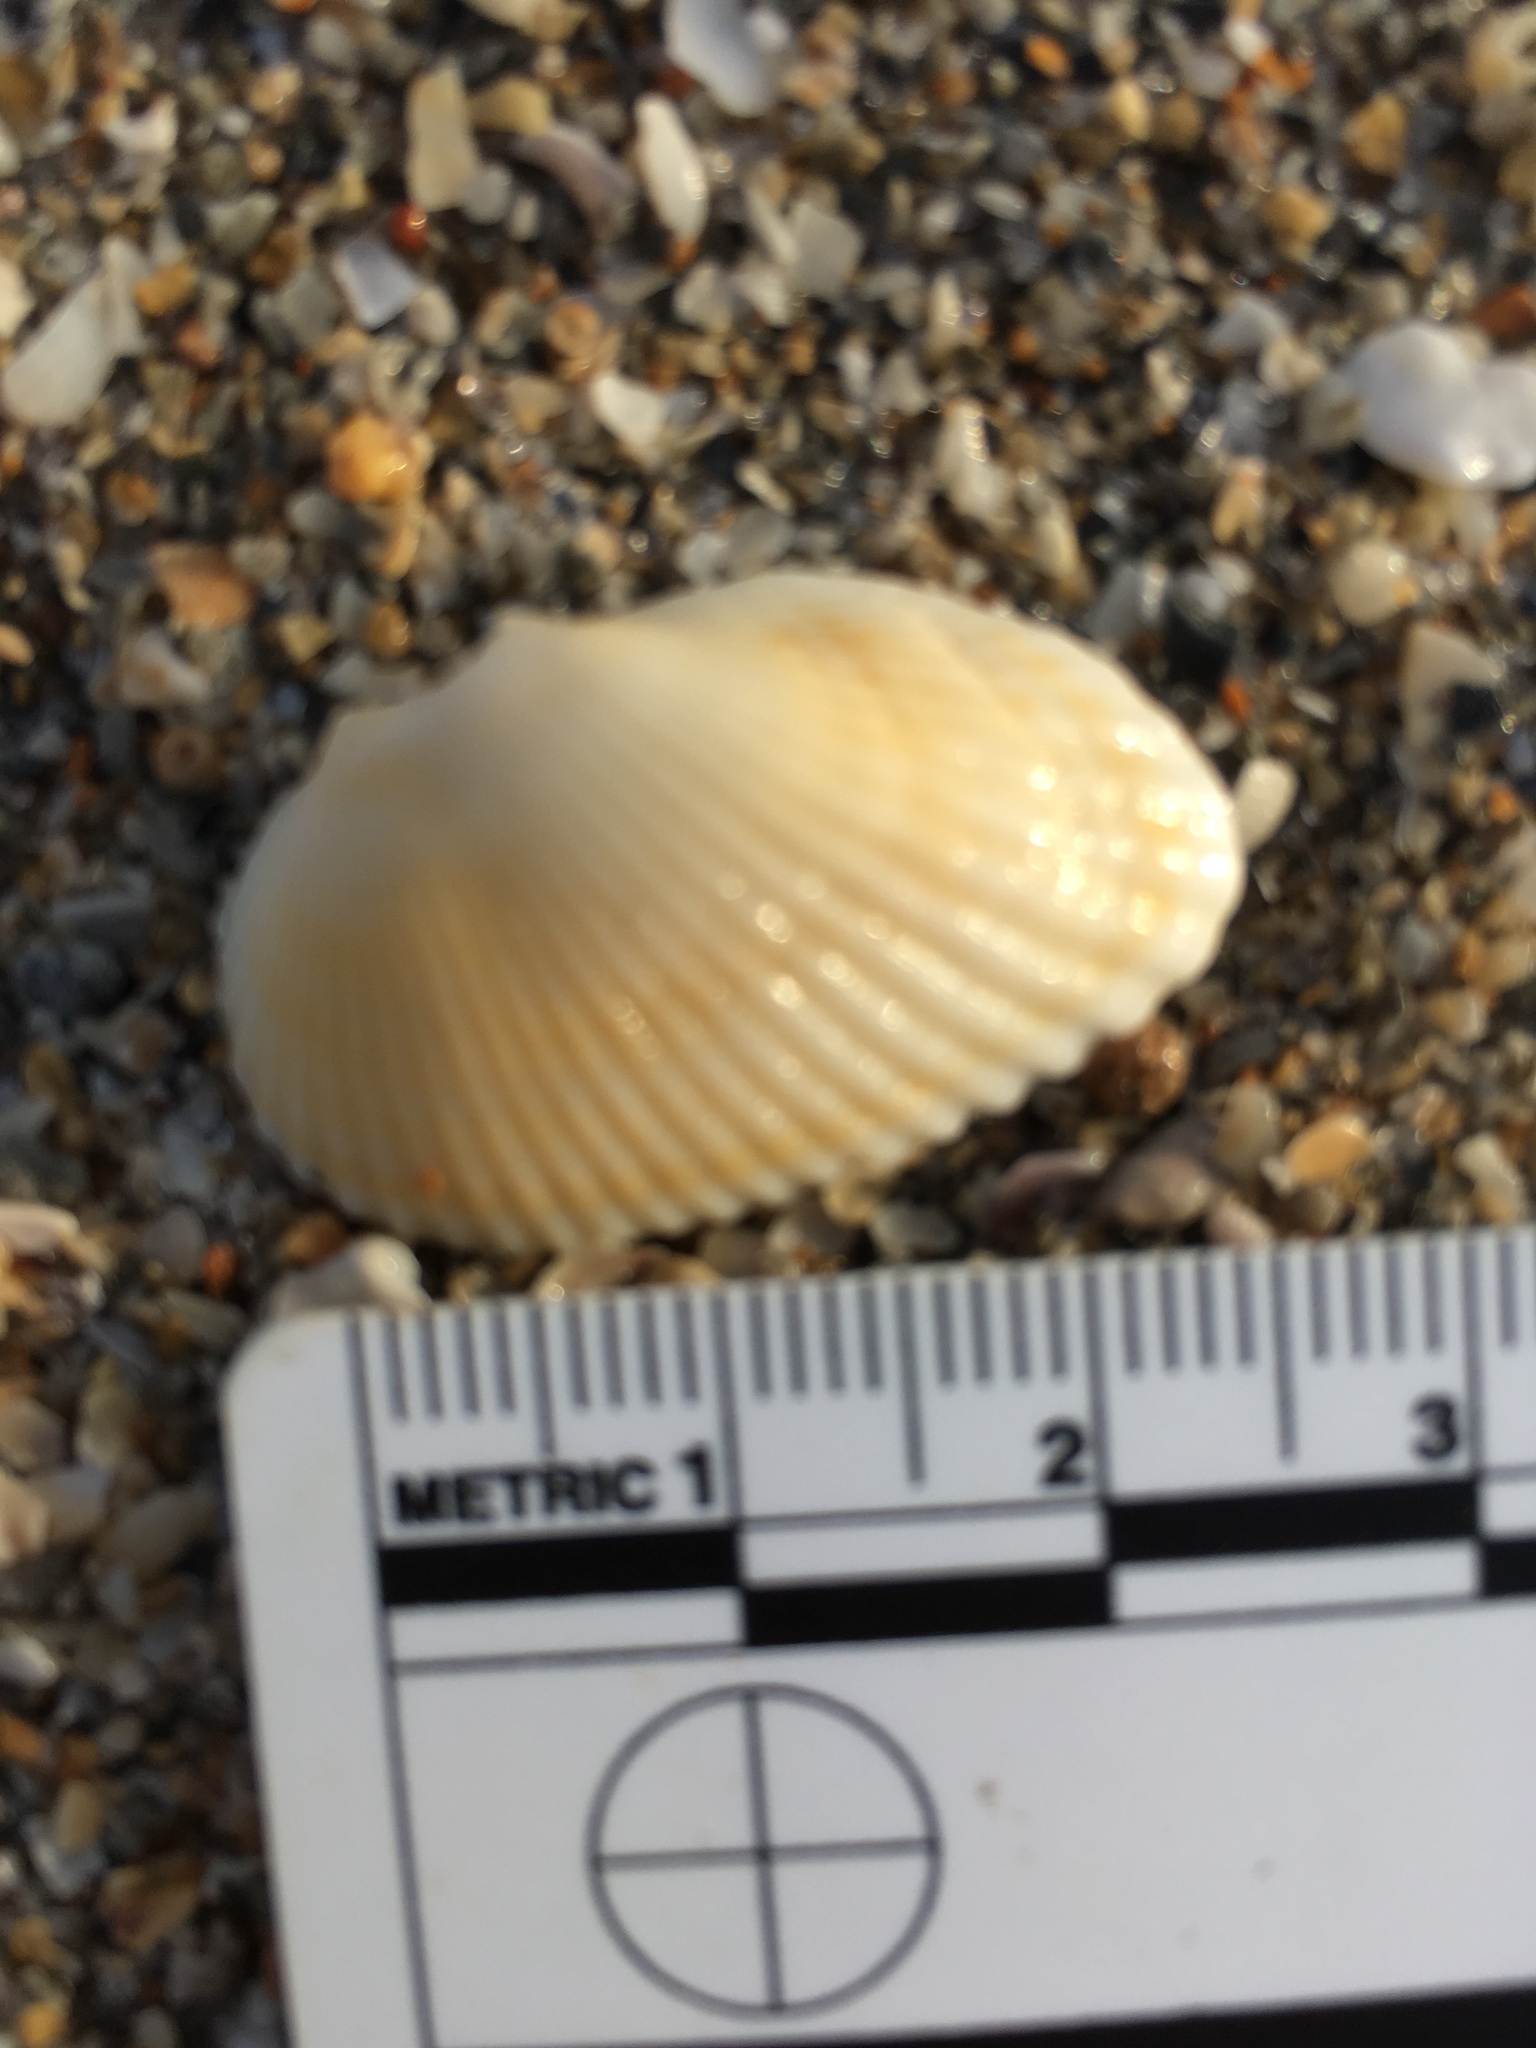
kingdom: Animalia
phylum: Mollusca
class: Bivalvia
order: Arcida
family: Arcidae
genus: Anadara
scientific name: Anadara transversa
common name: Transverse ark
